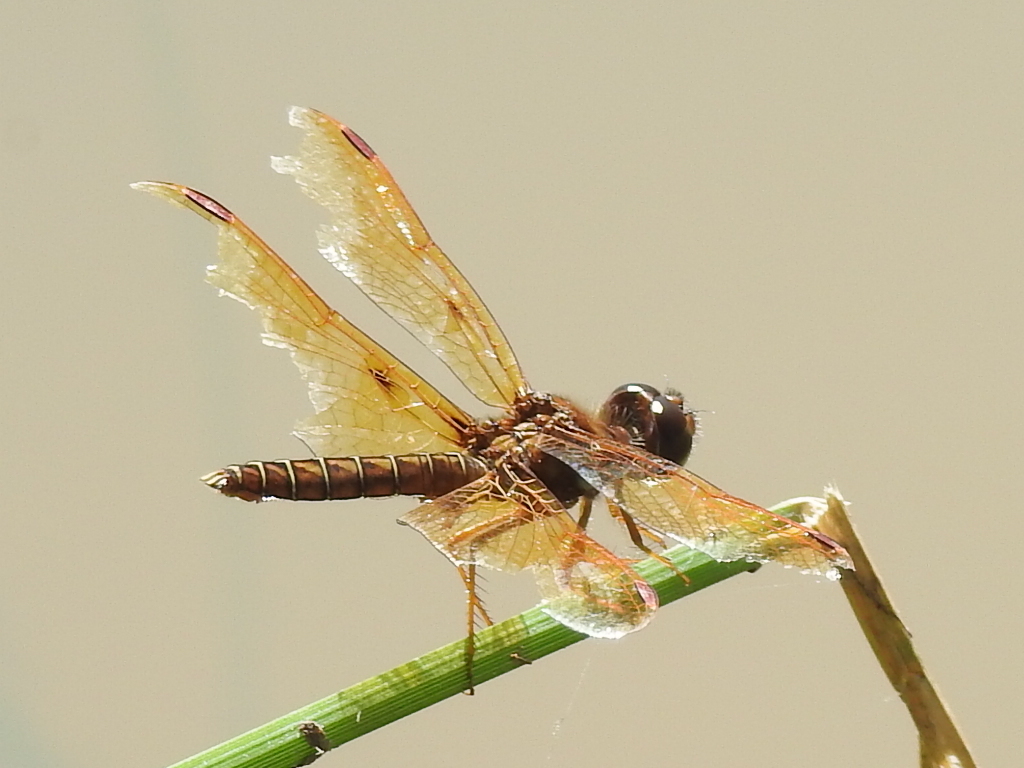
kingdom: Animalia
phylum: Arthropoda
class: Insecta
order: Odonata
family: Libellulidae
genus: Perithemis
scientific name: Perithemis tenera
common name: Eastern amberwing
